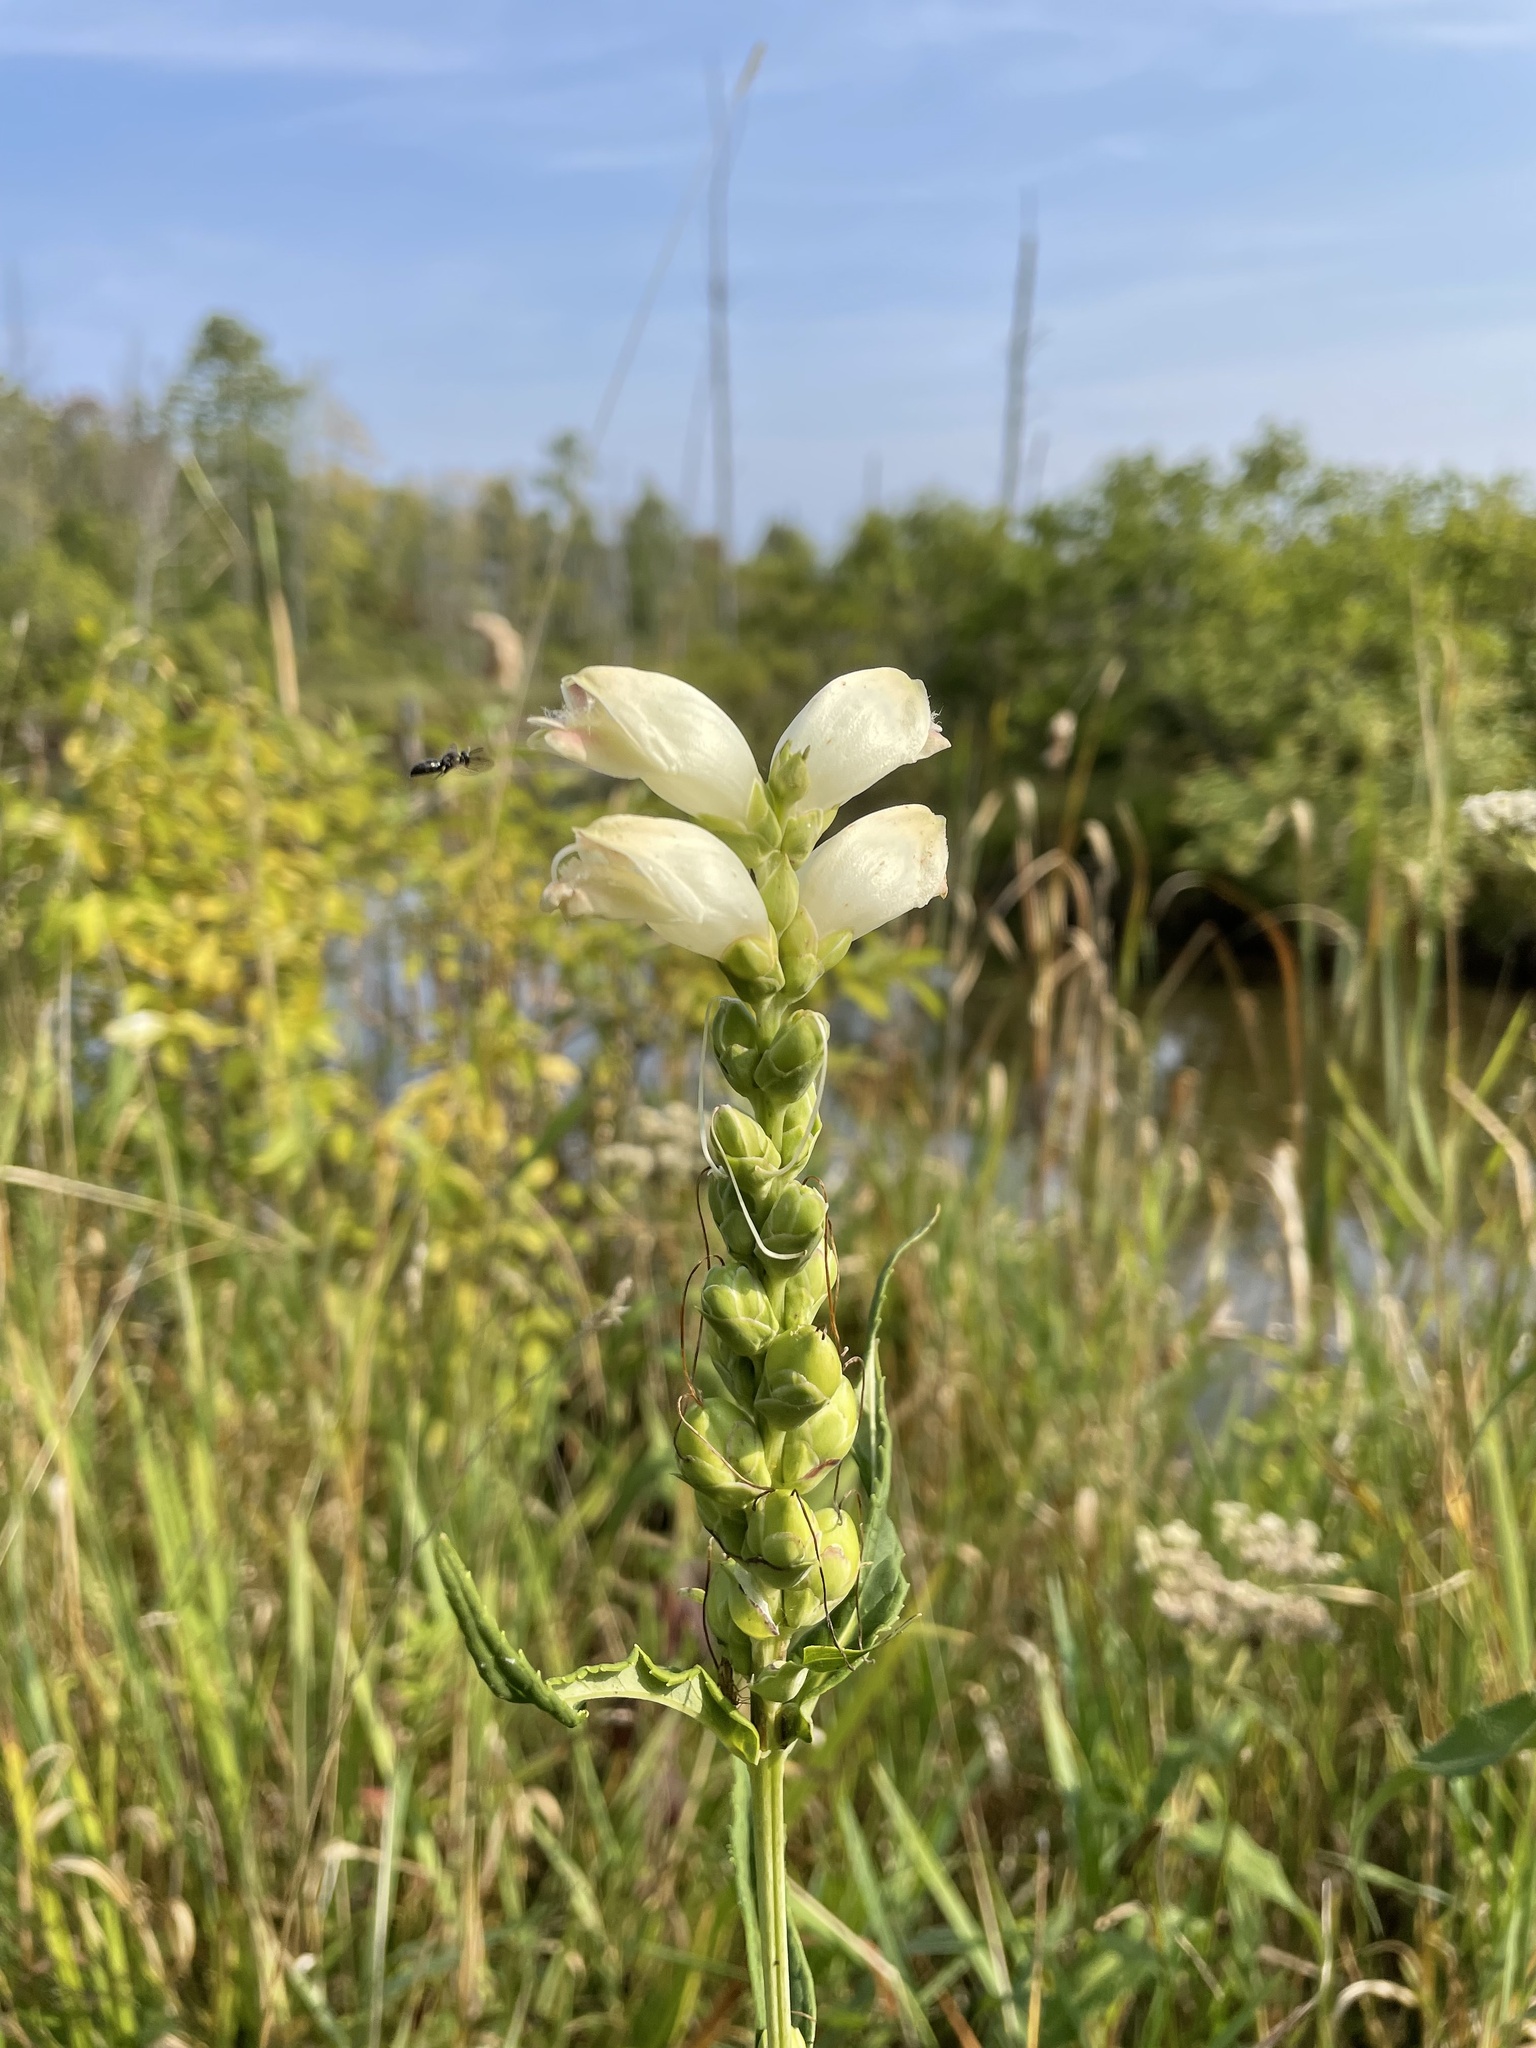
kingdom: Plantae
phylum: Tracheophyta
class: Magnoliopsida
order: Lamiales
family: Plantaginaceae
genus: Chelone
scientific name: Chelone glabra
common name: Snakehead
